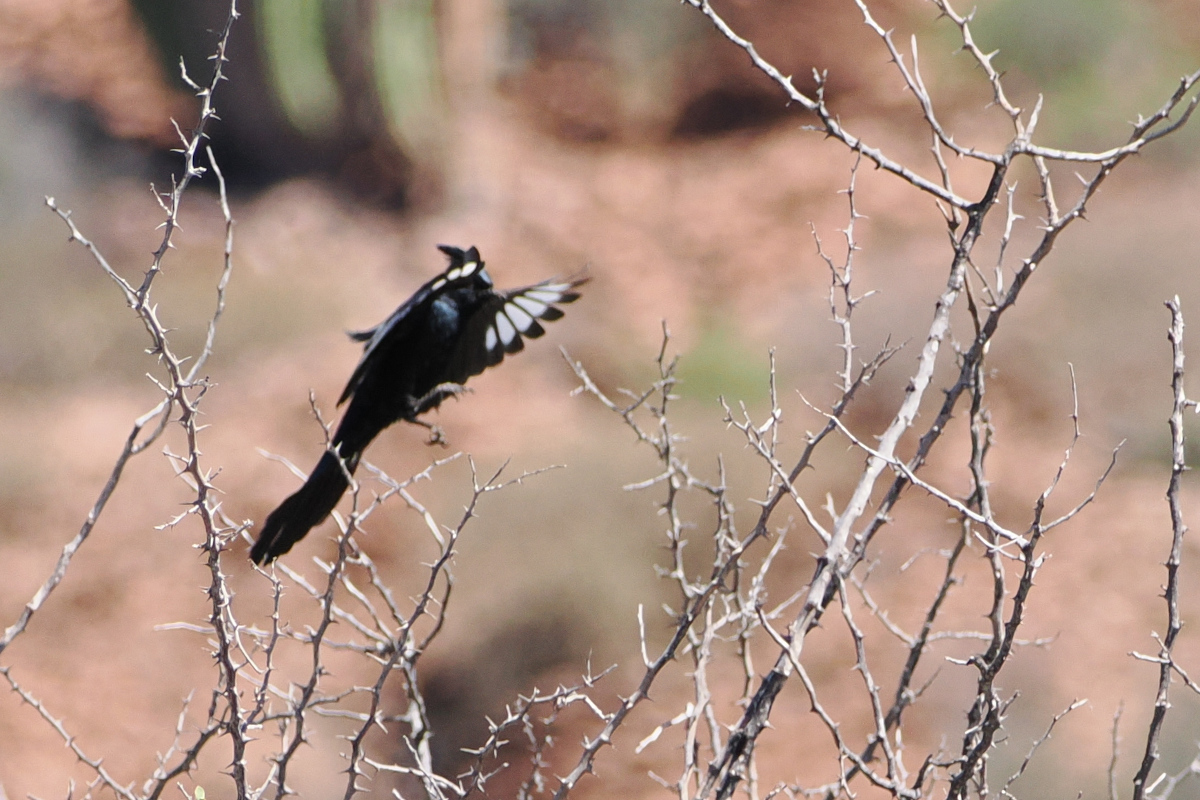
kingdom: Animalia
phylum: Chordata
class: Aves
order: Passeriformes
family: Ptilogonatidae
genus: Phainopepla
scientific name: Phainopepla nitens
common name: Phainopepla
